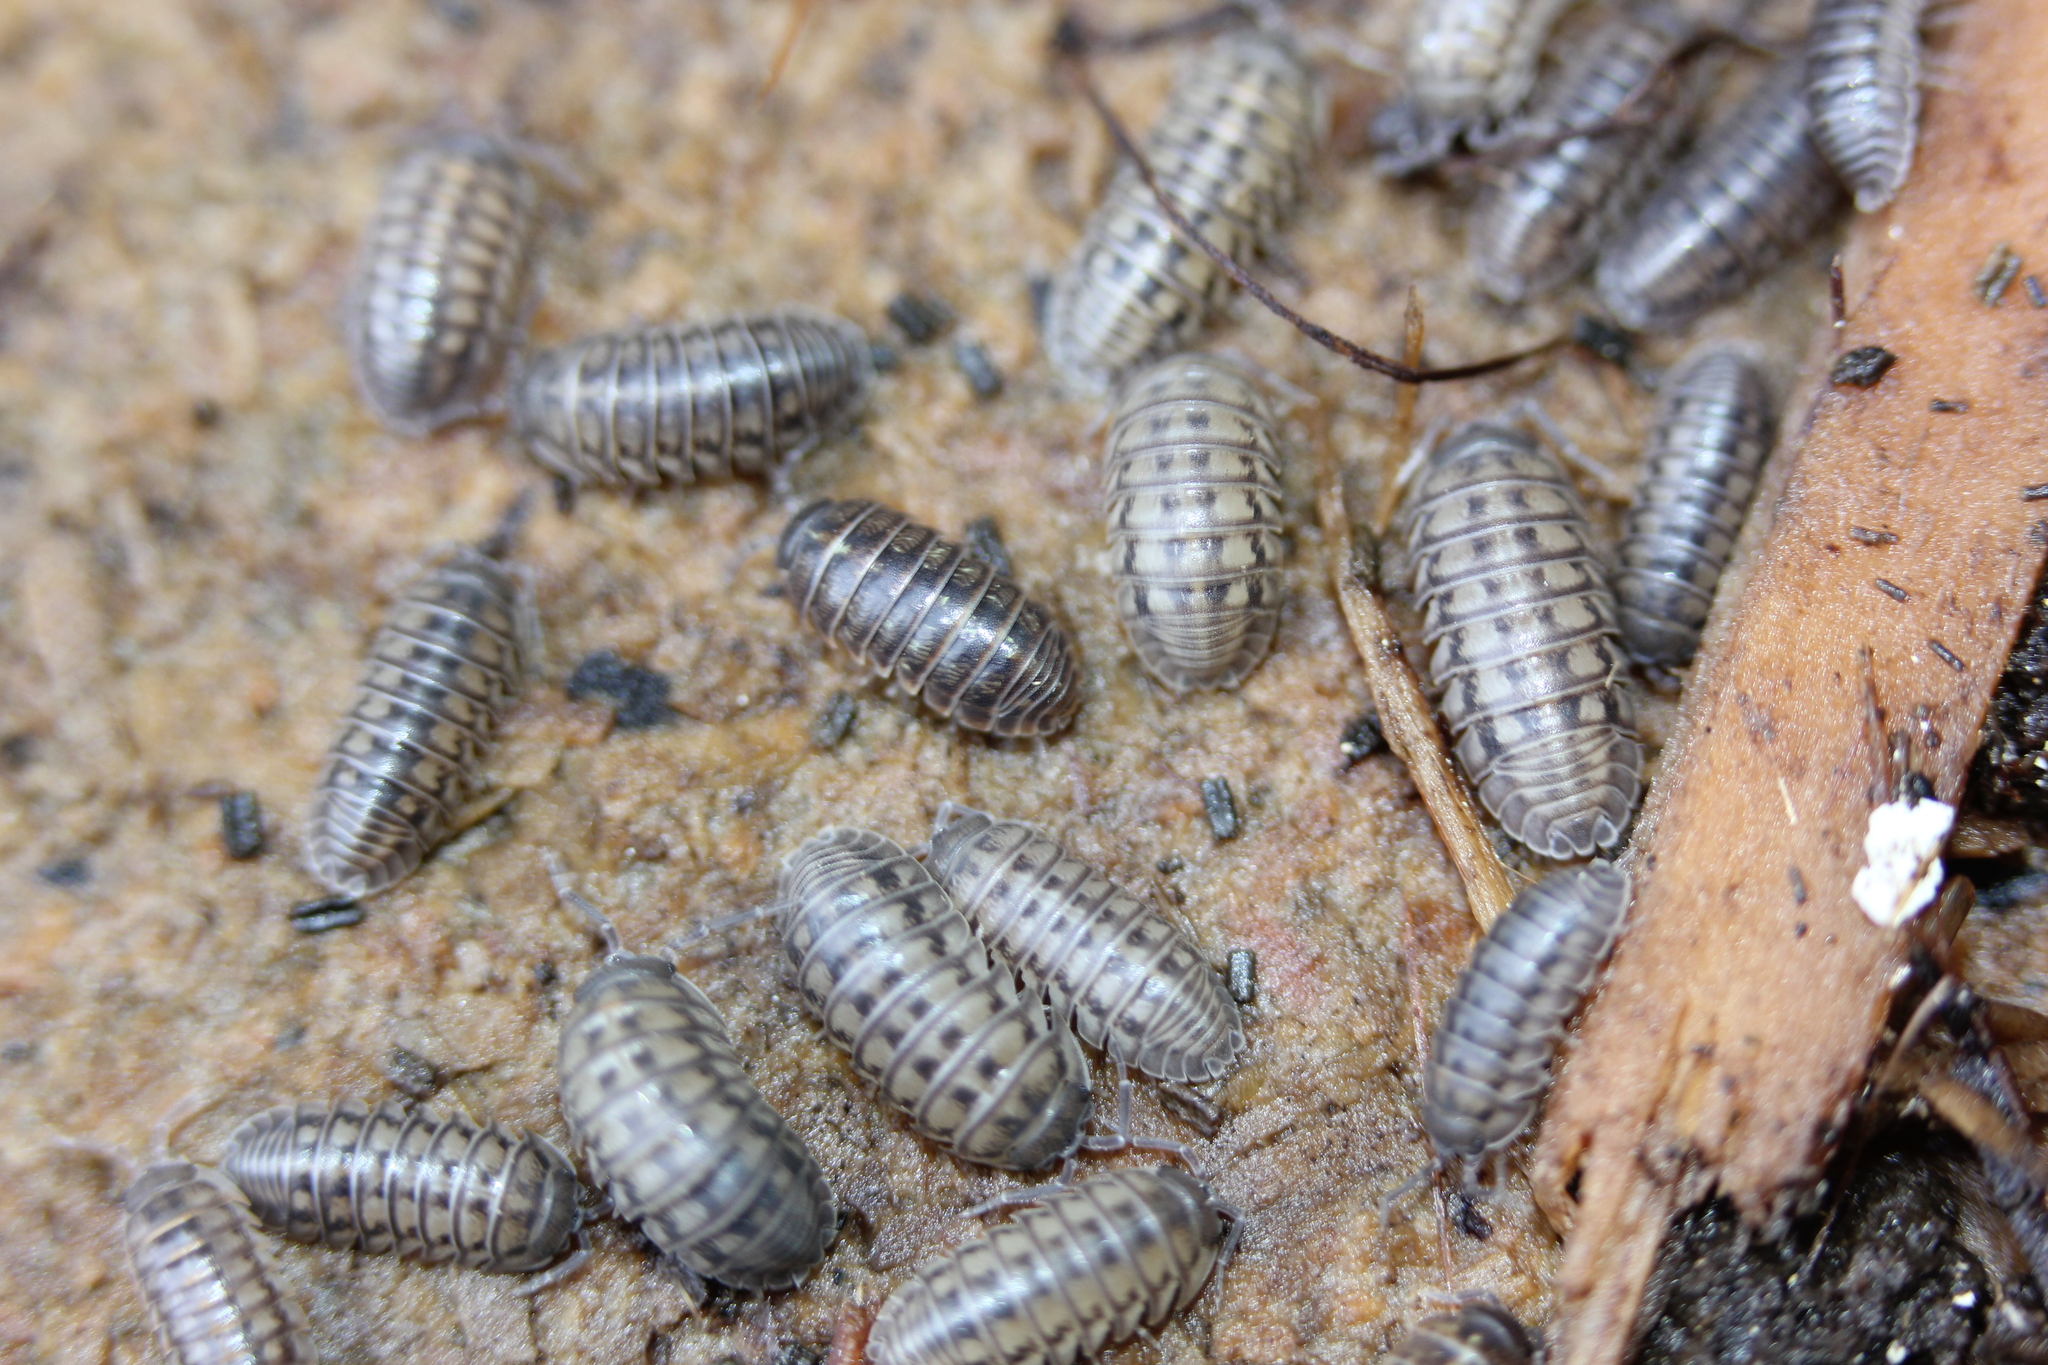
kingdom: Animalia
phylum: Arthropoda
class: Malacostraca
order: Isopoda
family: Armadillidiidae
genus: Armadillidium
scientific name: Armadillidium vulgare
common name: Common pill woodlouse
